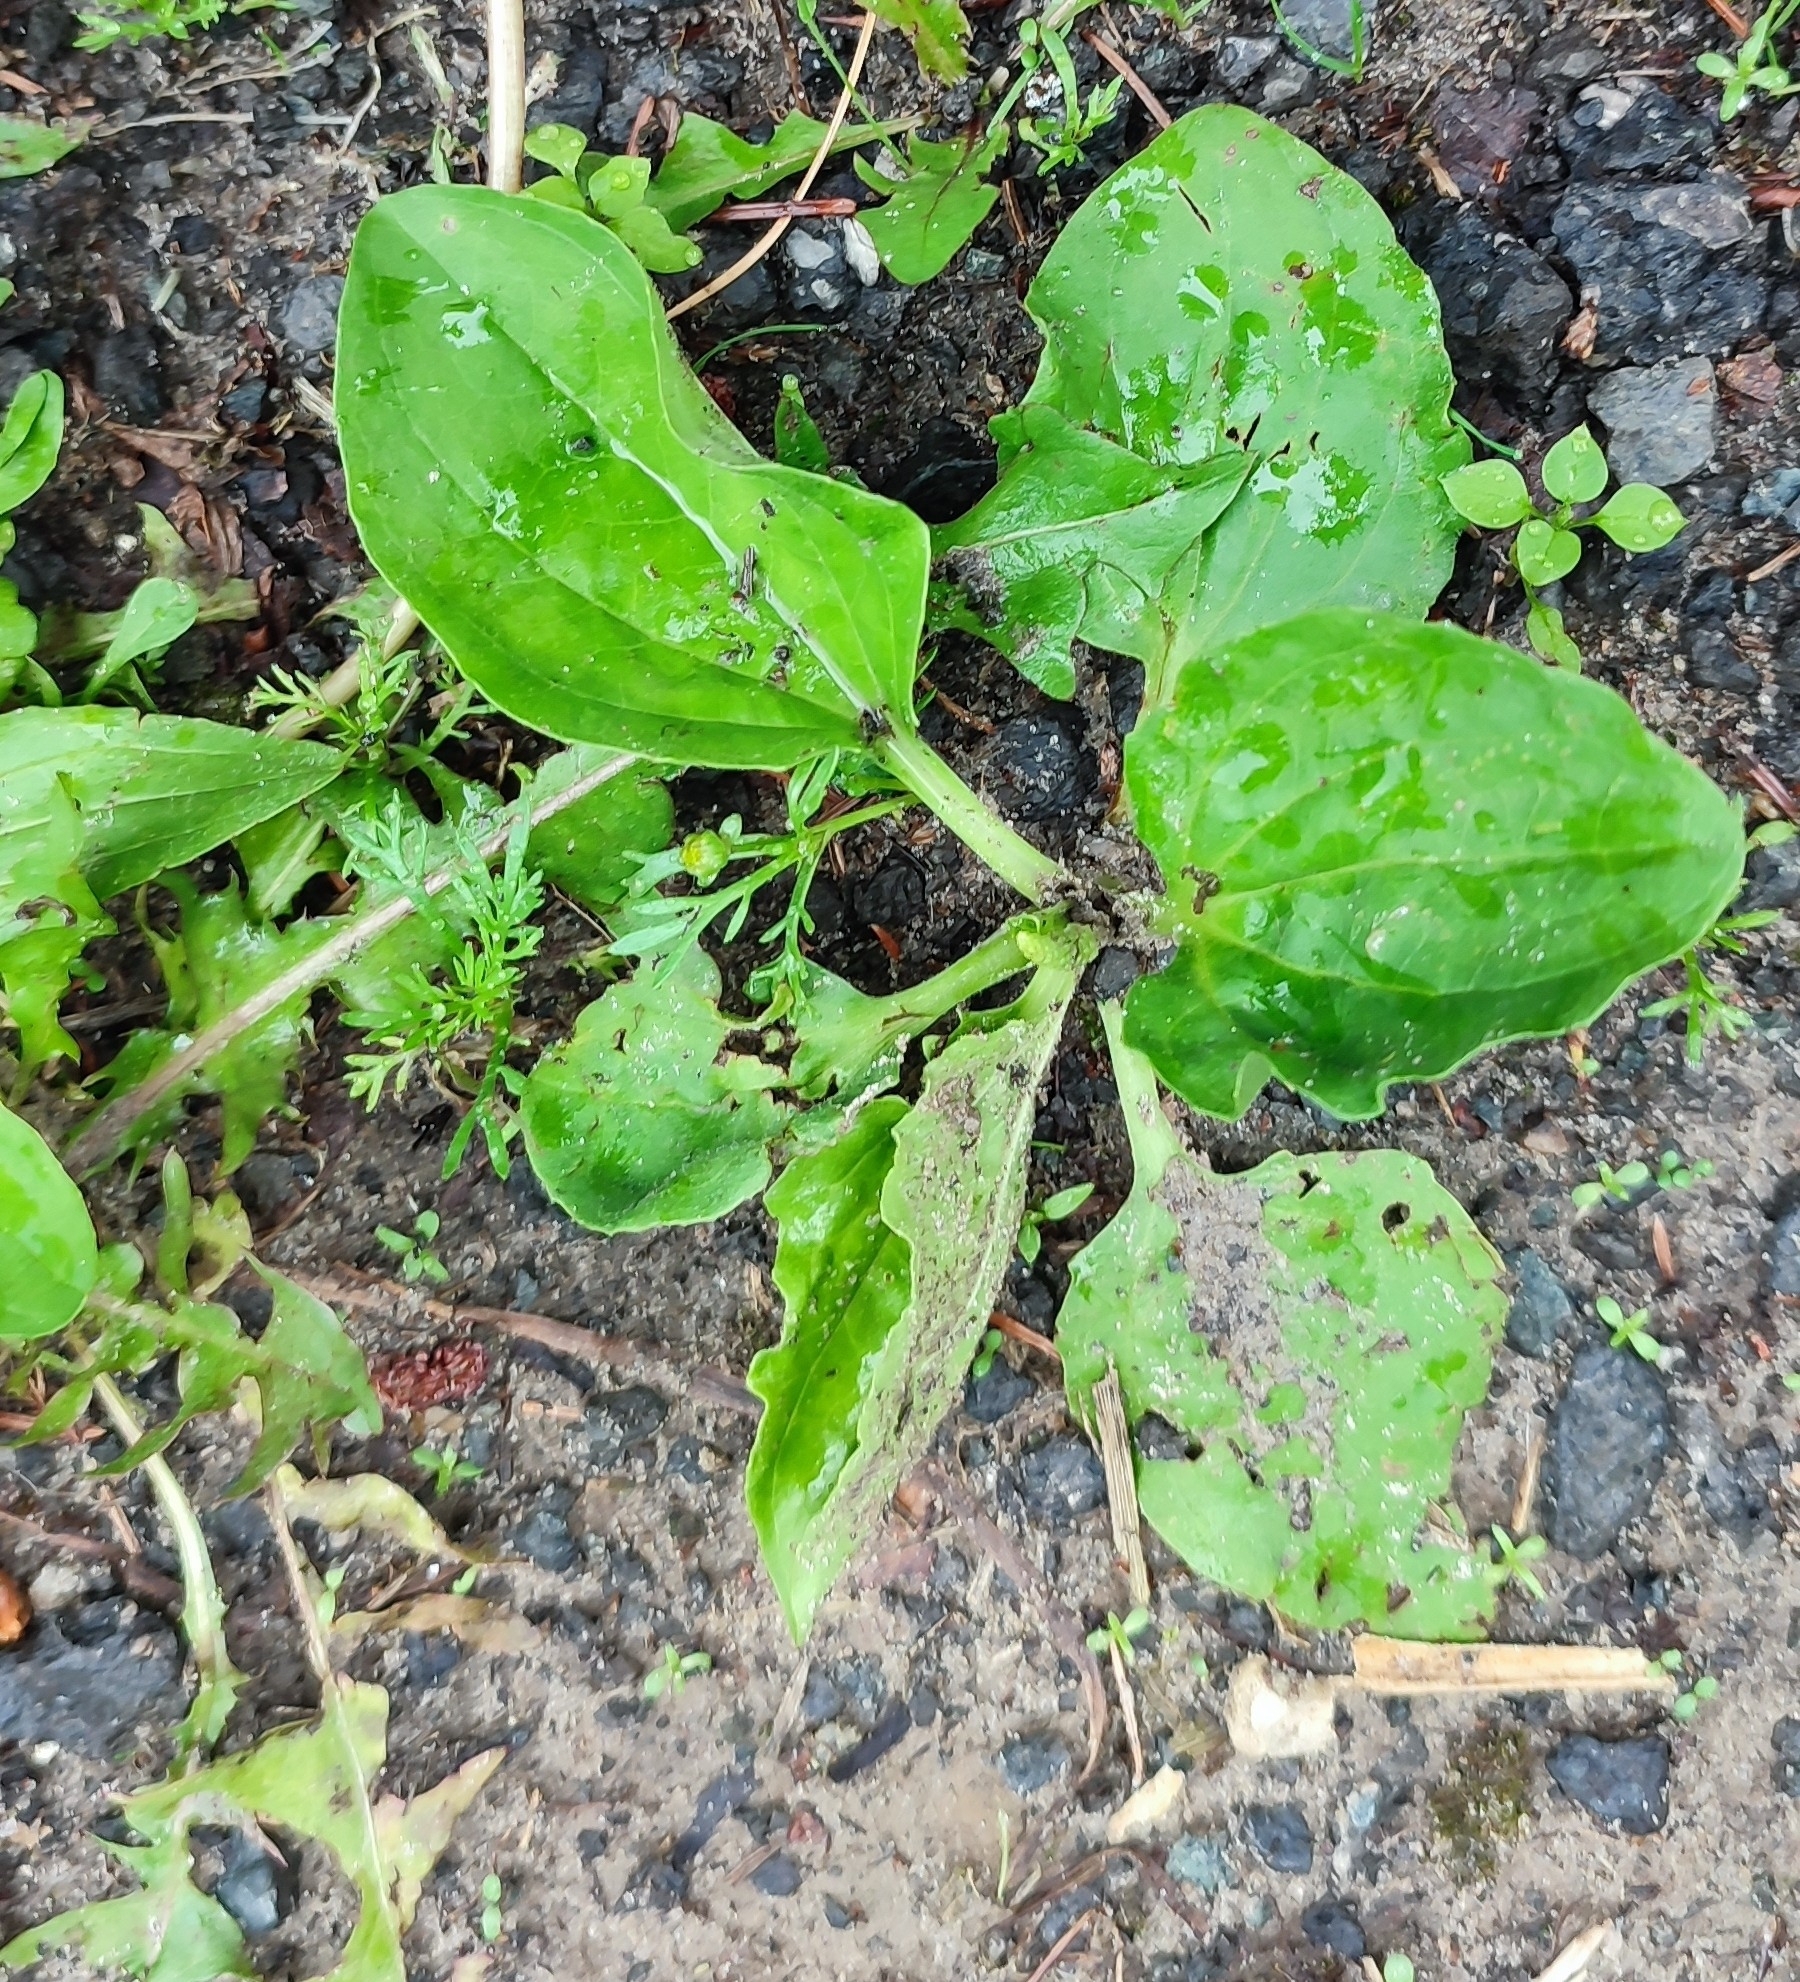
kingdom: Plantae
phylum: Tracheophyta
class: Magnoliopsida
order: Lamiales
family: Plantaginaceae
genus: Plantago
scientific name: Plantago major
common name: Common plantain
